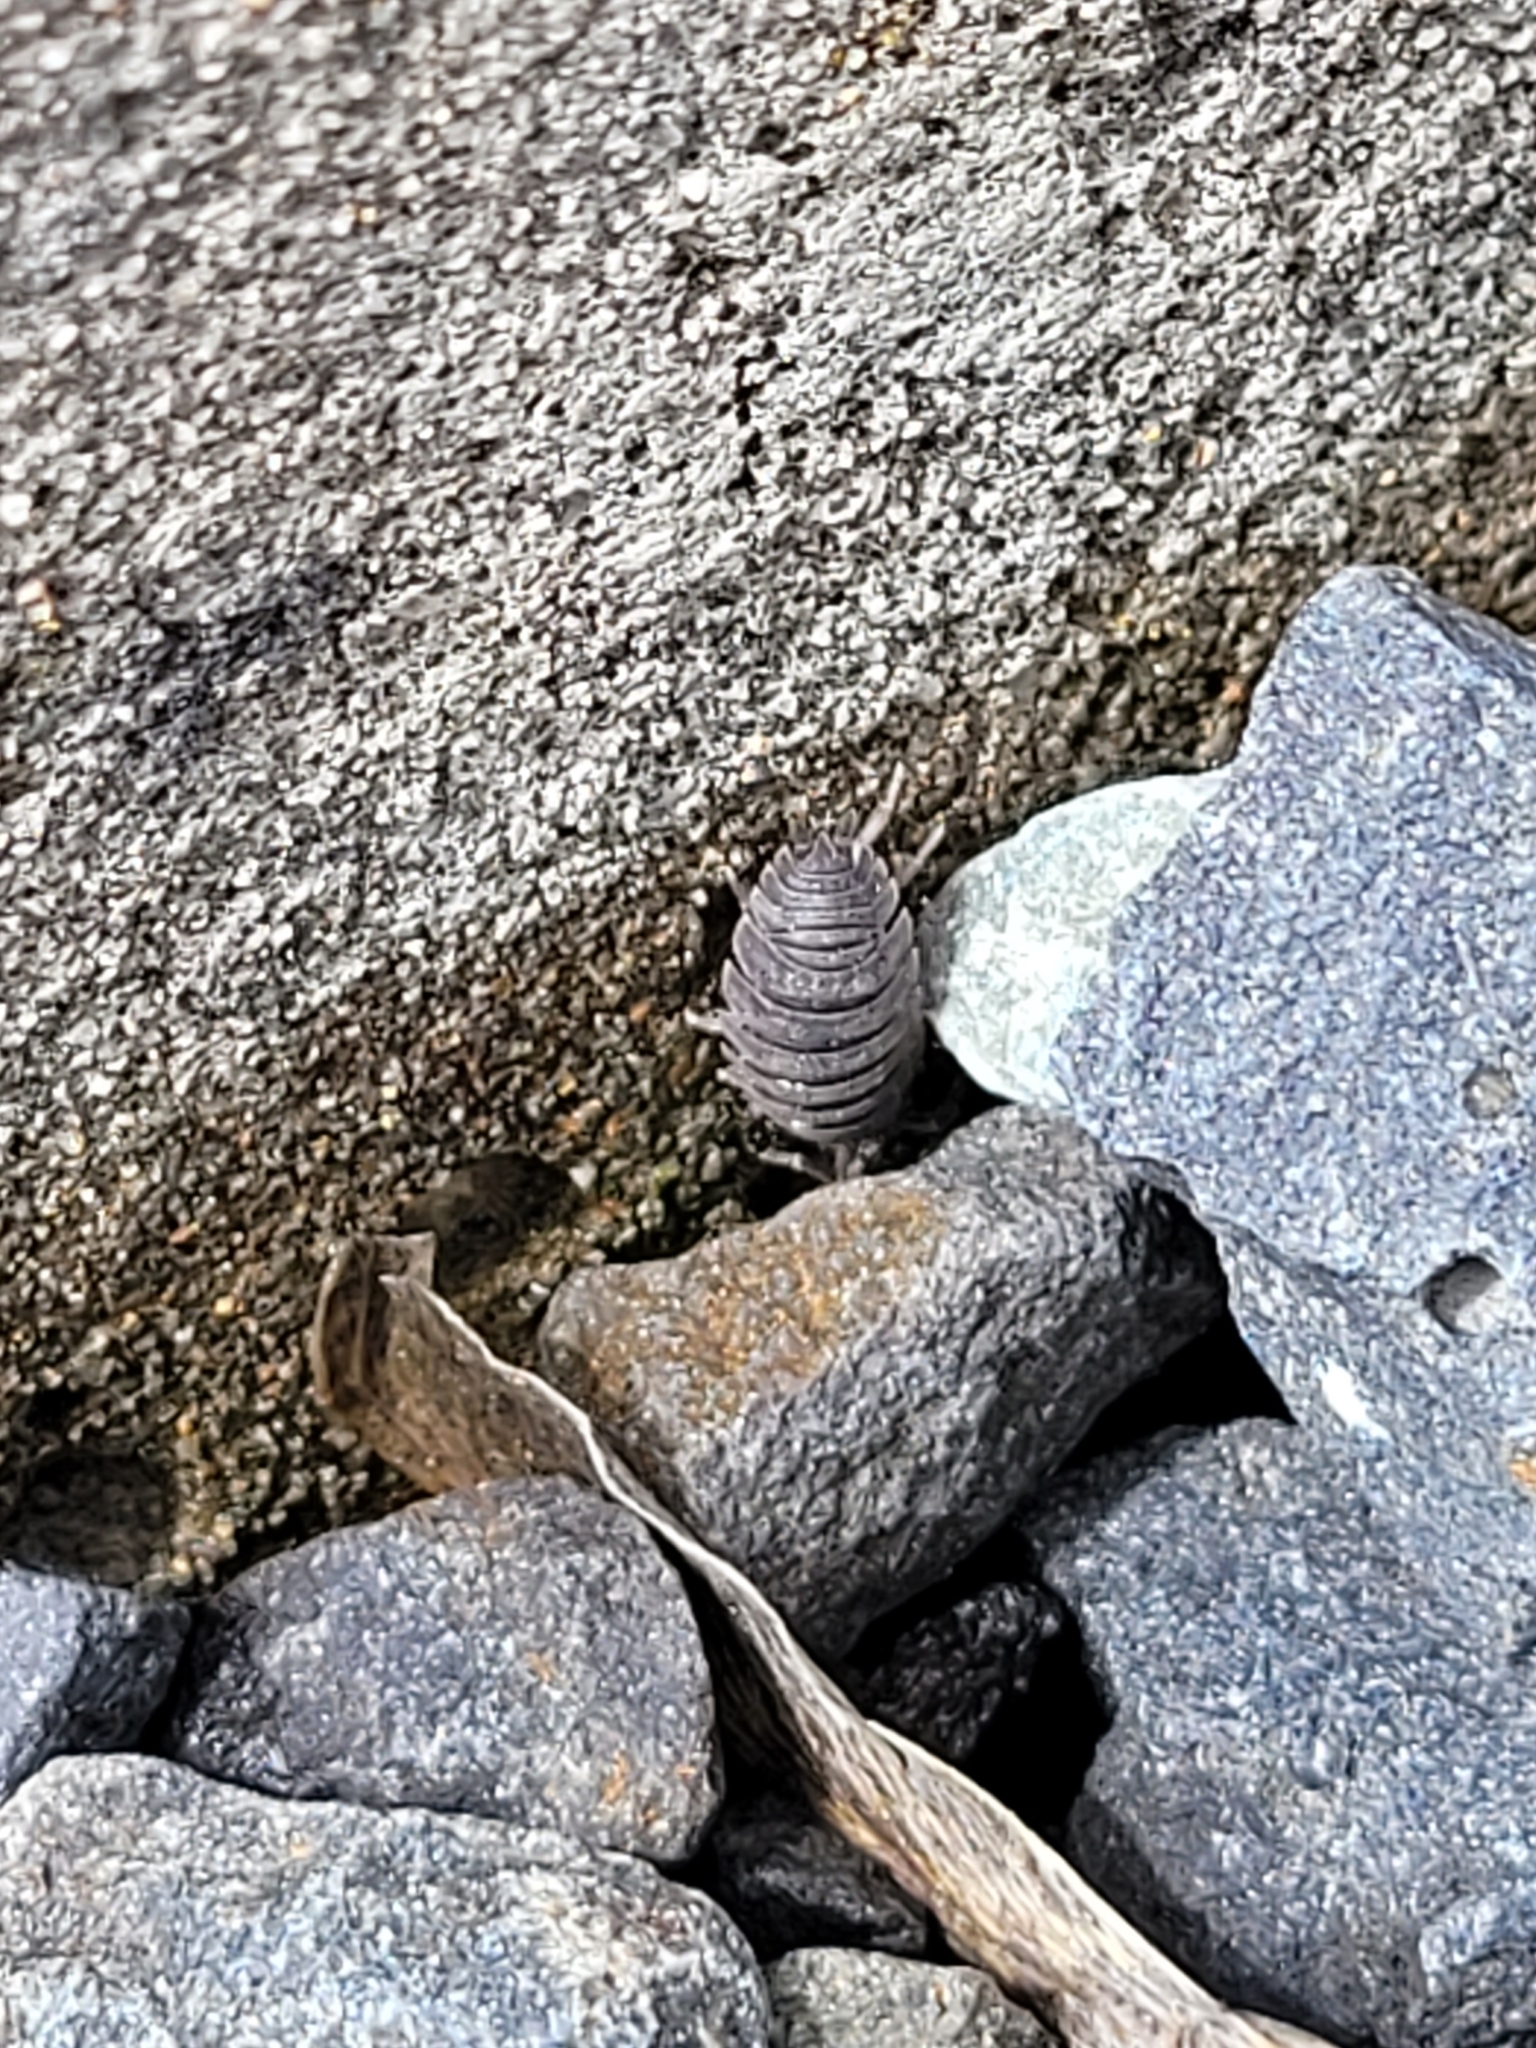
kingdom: Animalia
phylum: Arthropoda
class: Malacostraca
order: Isopoda
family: Porcellionidae
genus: Porcellio
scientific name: Porcellio scaber
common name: Common rough woodlouse
